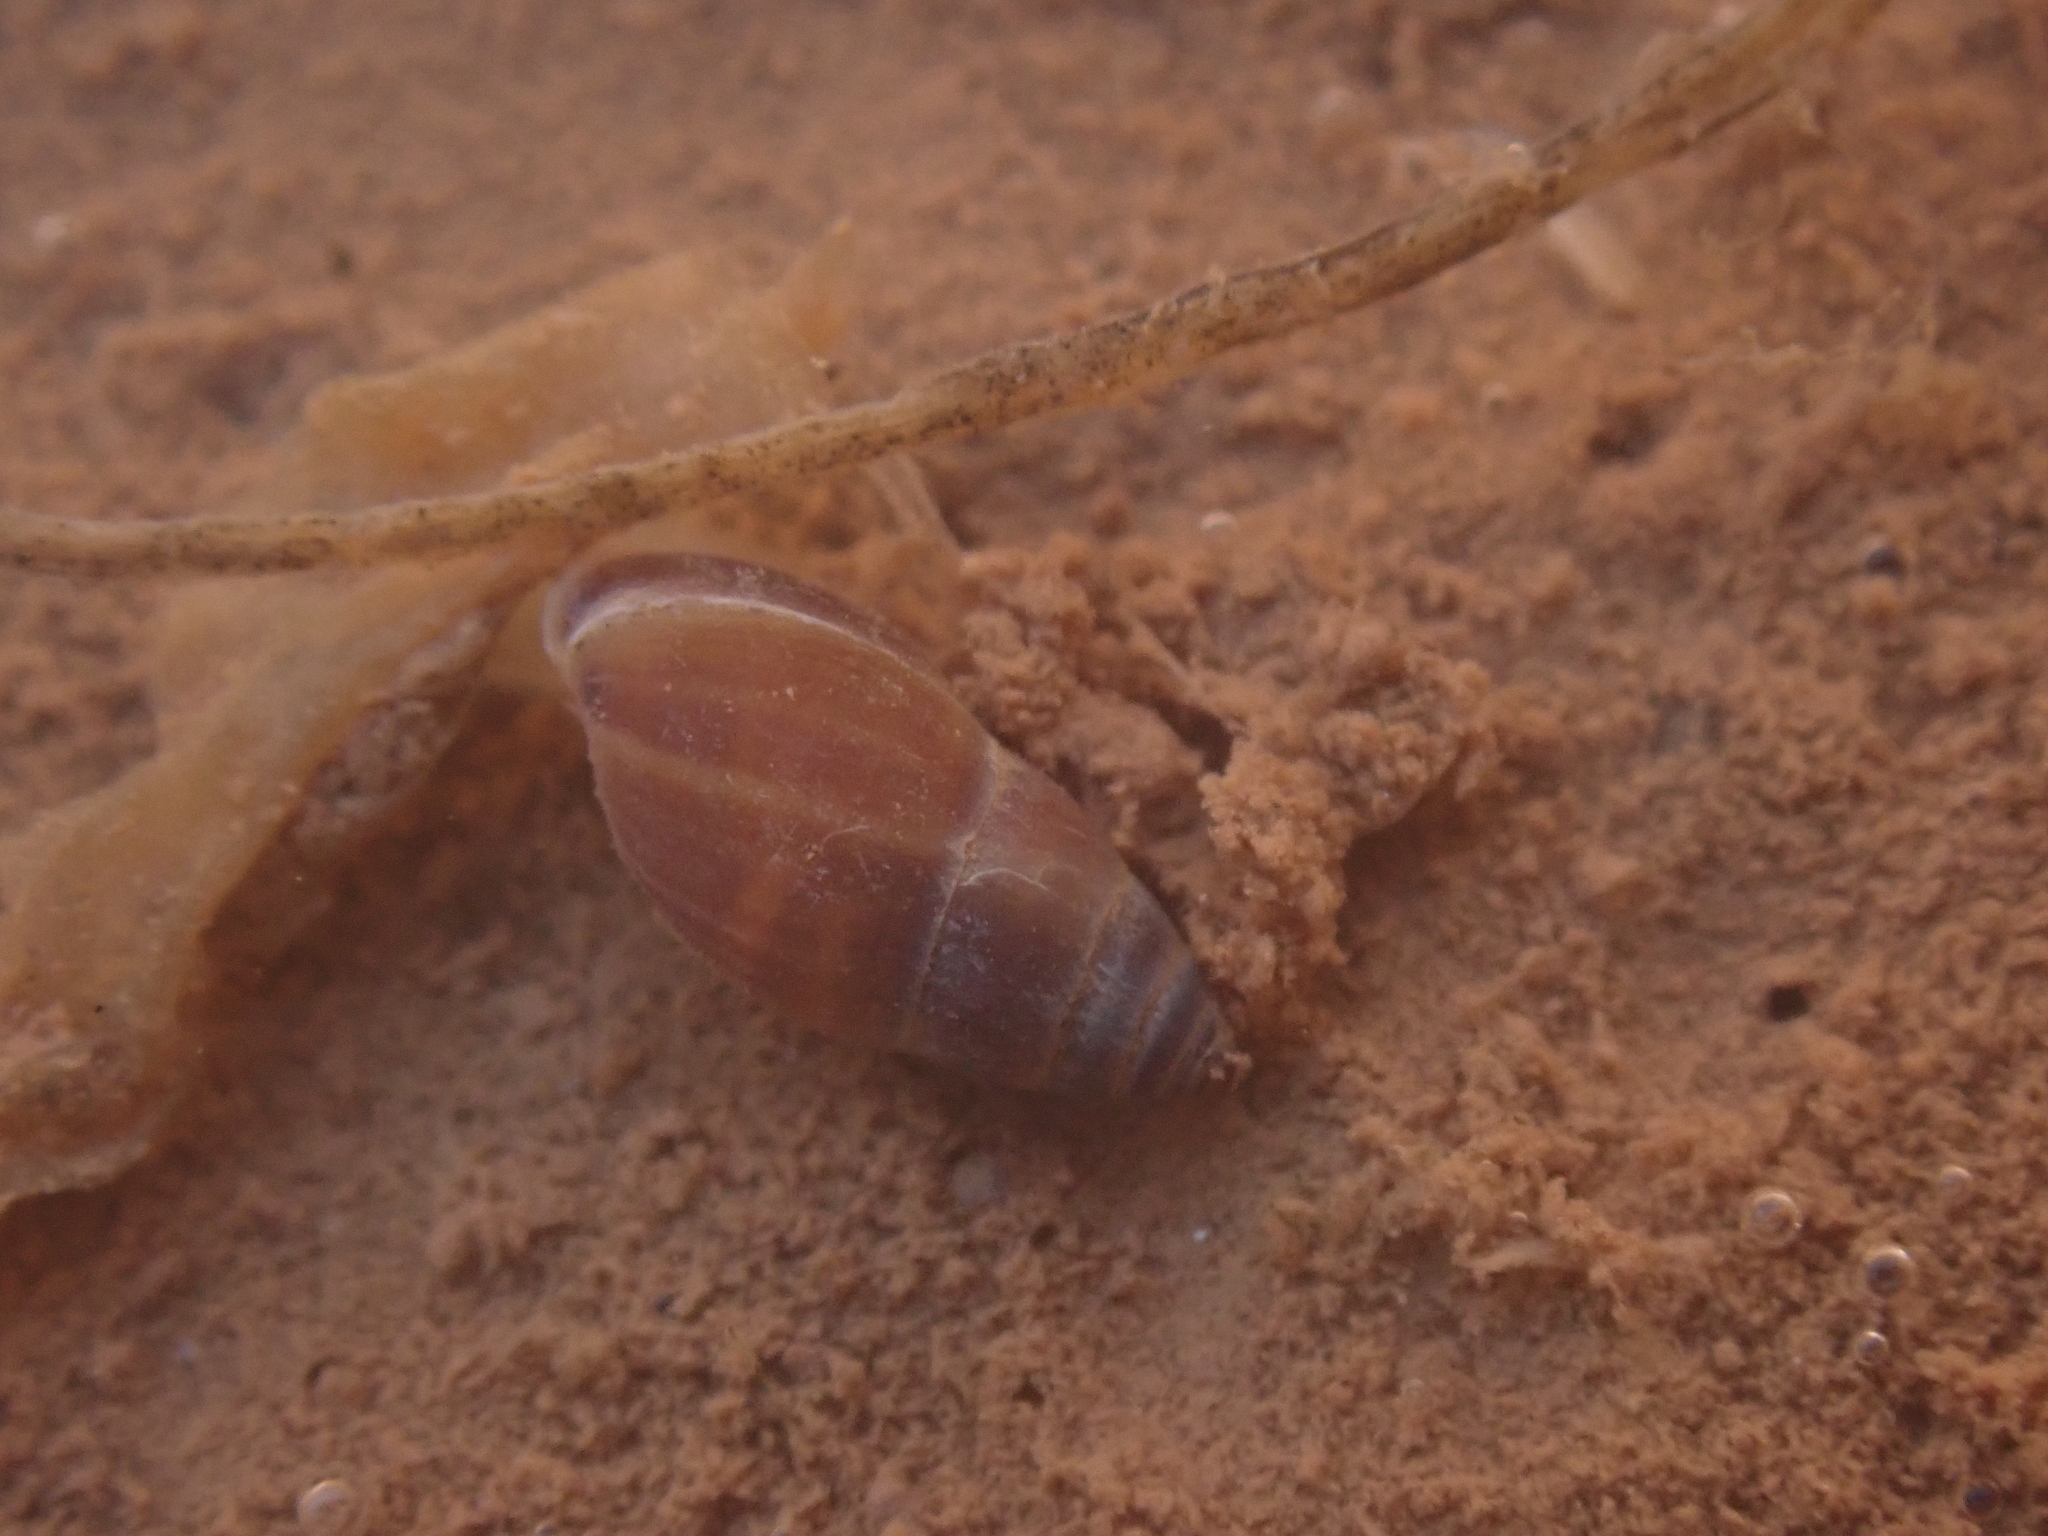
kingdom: Animalia
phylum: Mollusca
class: Gastropoda
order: Ellobiida
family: Ellobiidae
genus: Myosotella
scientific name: Myosotella myosotis
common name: Mouse-eared snail
